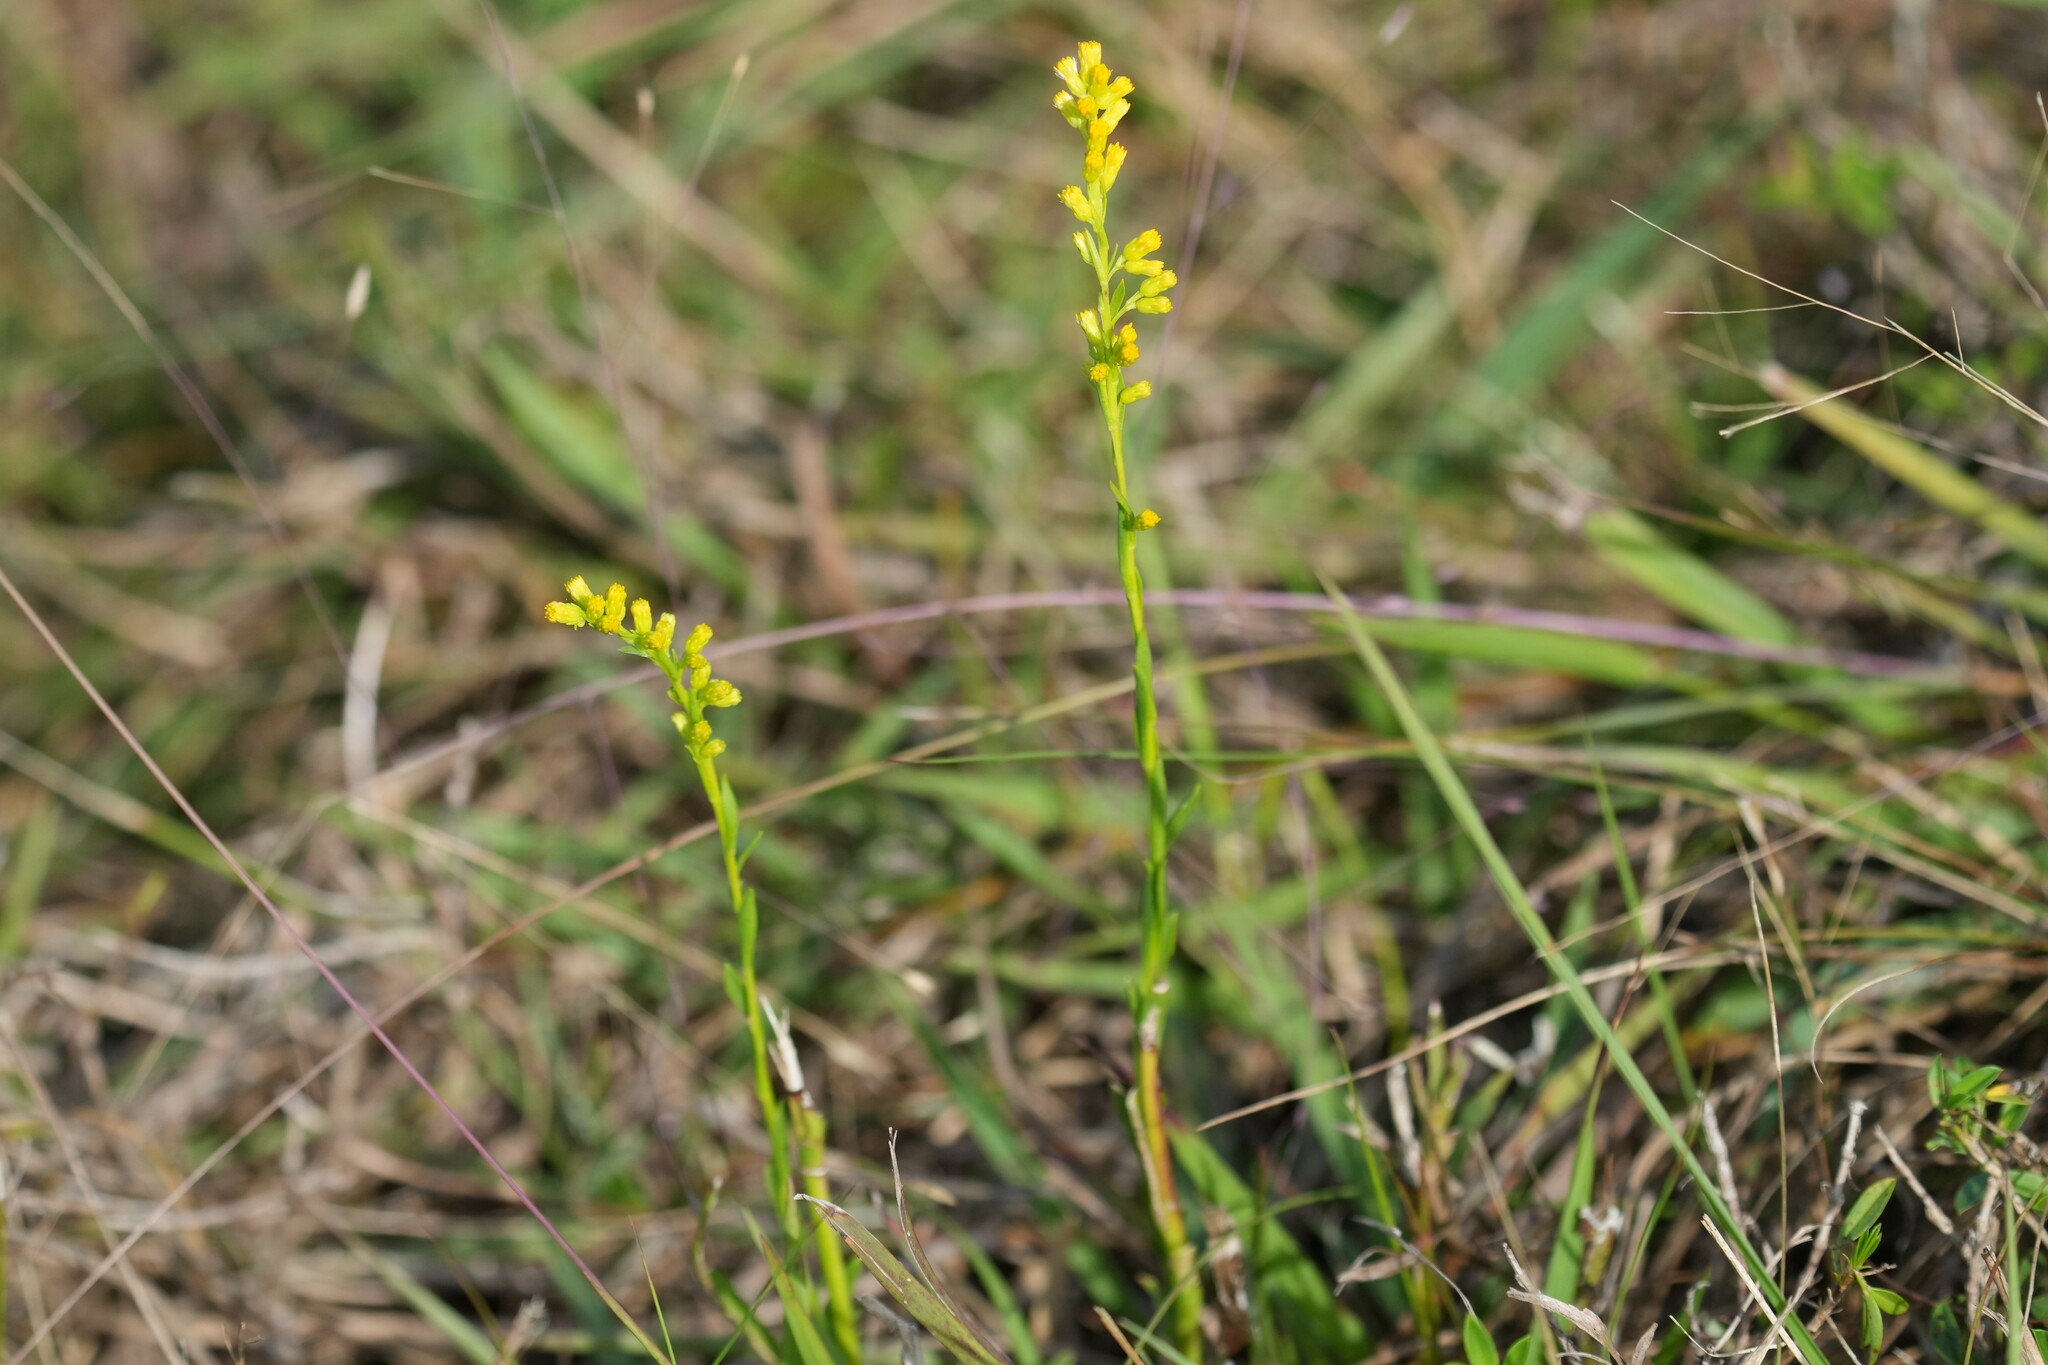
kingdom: Plantae
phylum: Tracheophyta
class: Magnoliopsida
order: Asterales
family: Asteraceae
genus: Solidago
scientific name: Solidago virgata
